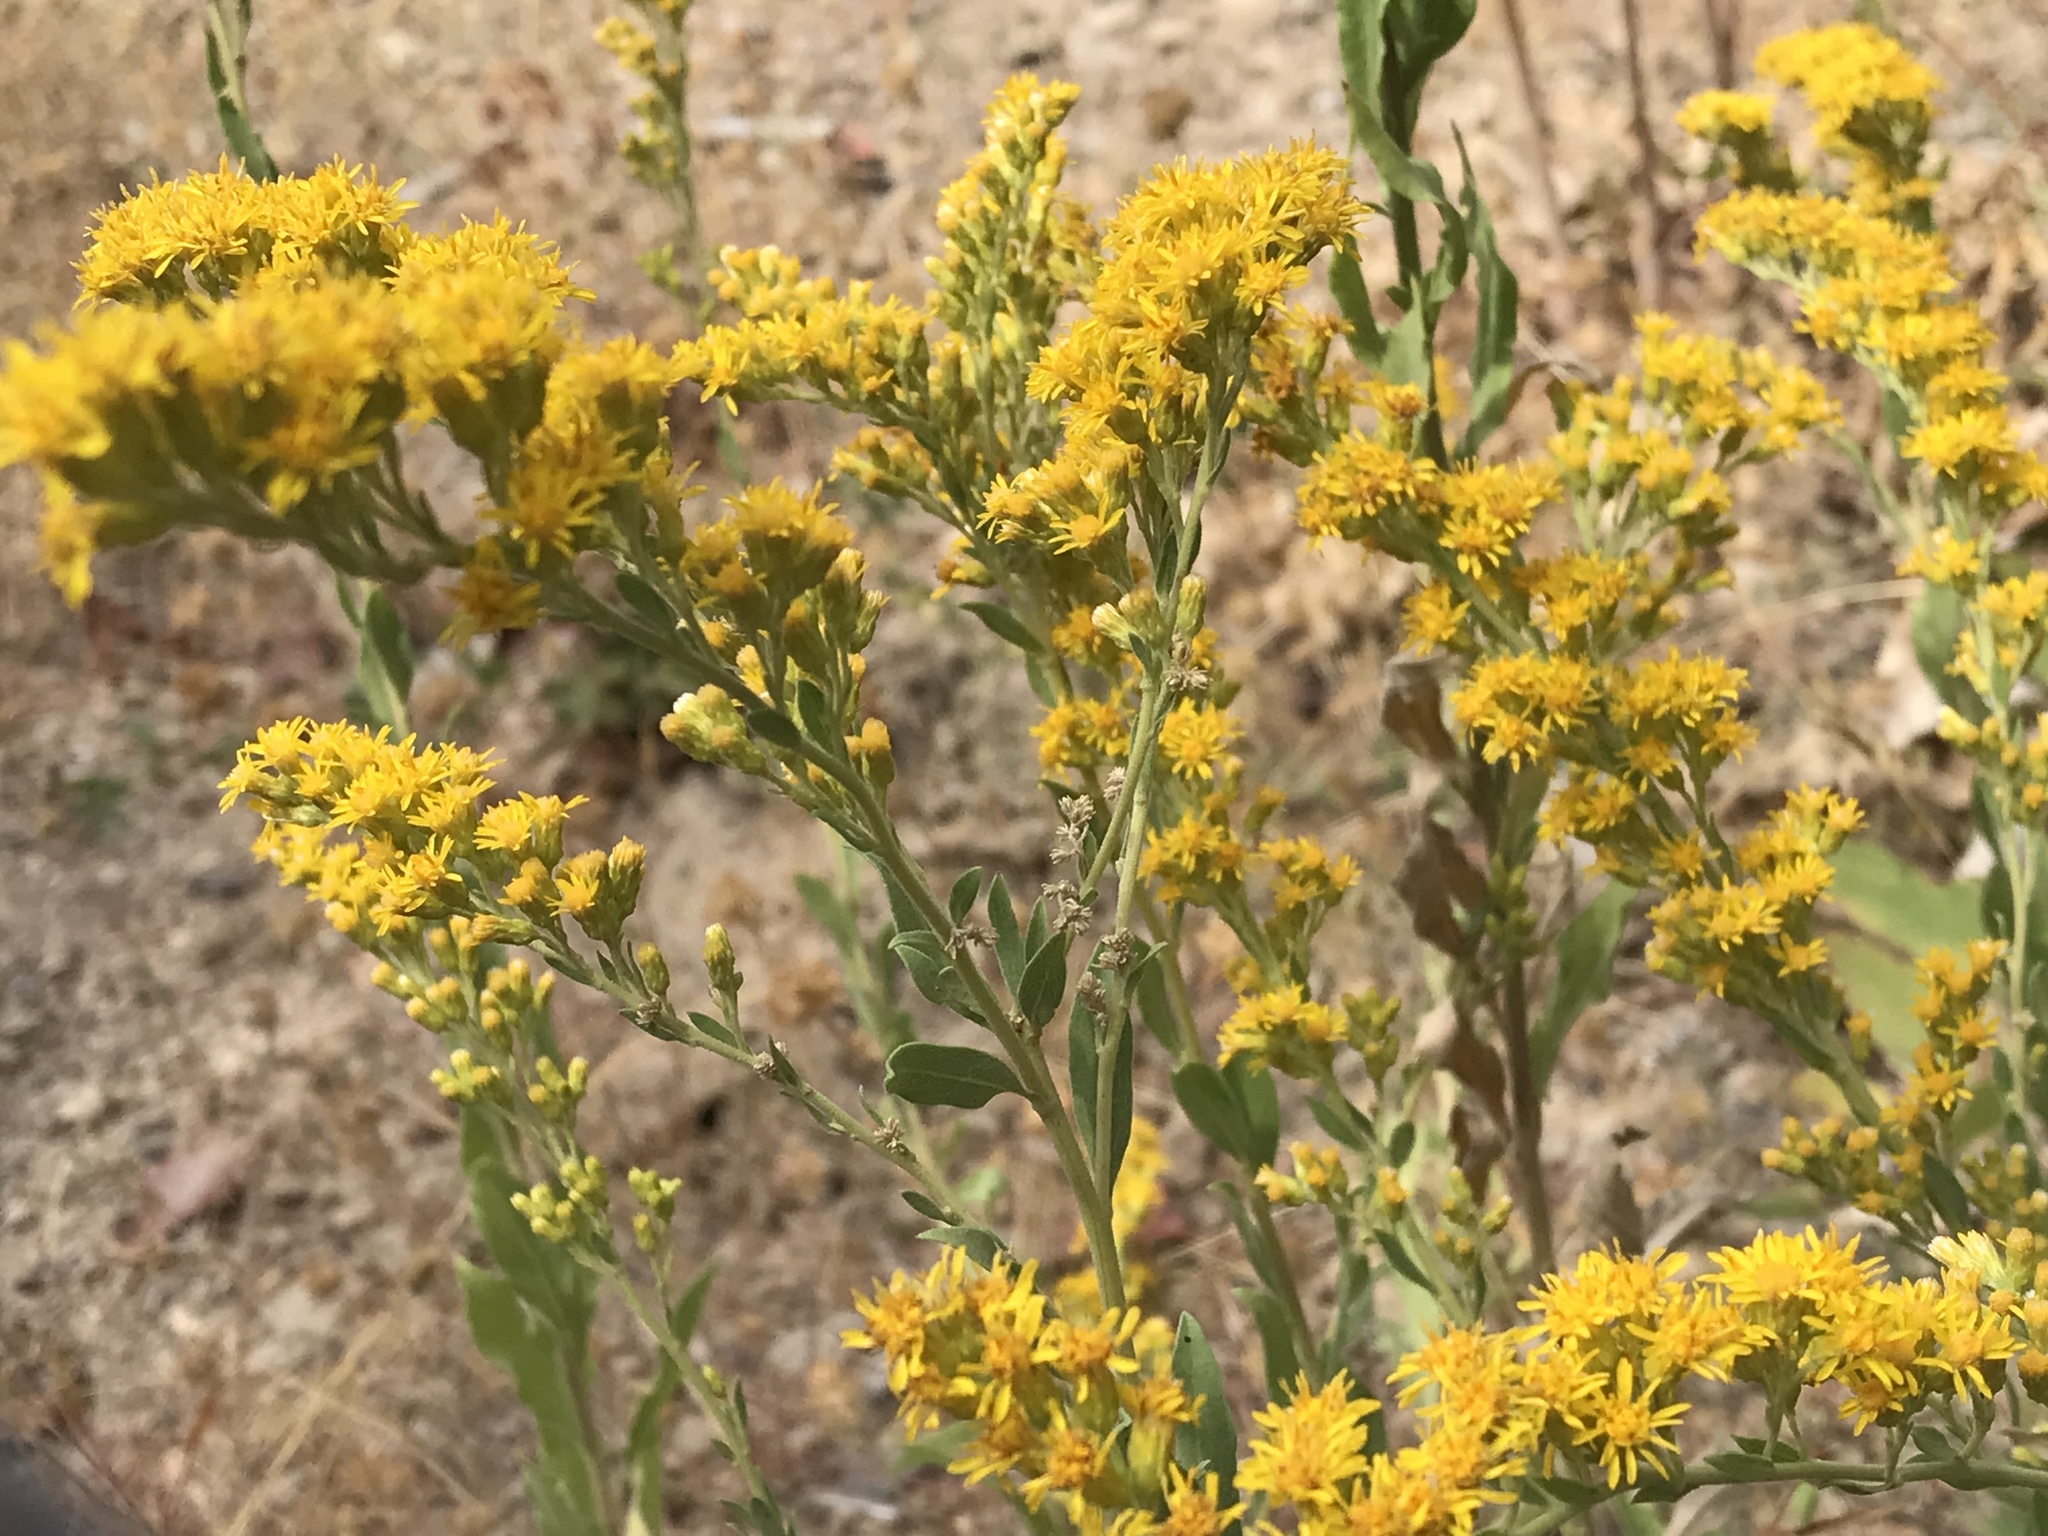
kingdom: Plantae
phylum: Tracheophyta
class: Magnoliopsida
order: Asterales
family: Asteraceae
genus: Solidago
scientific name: Solidago velutina
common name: Three-nerve goldenrod
